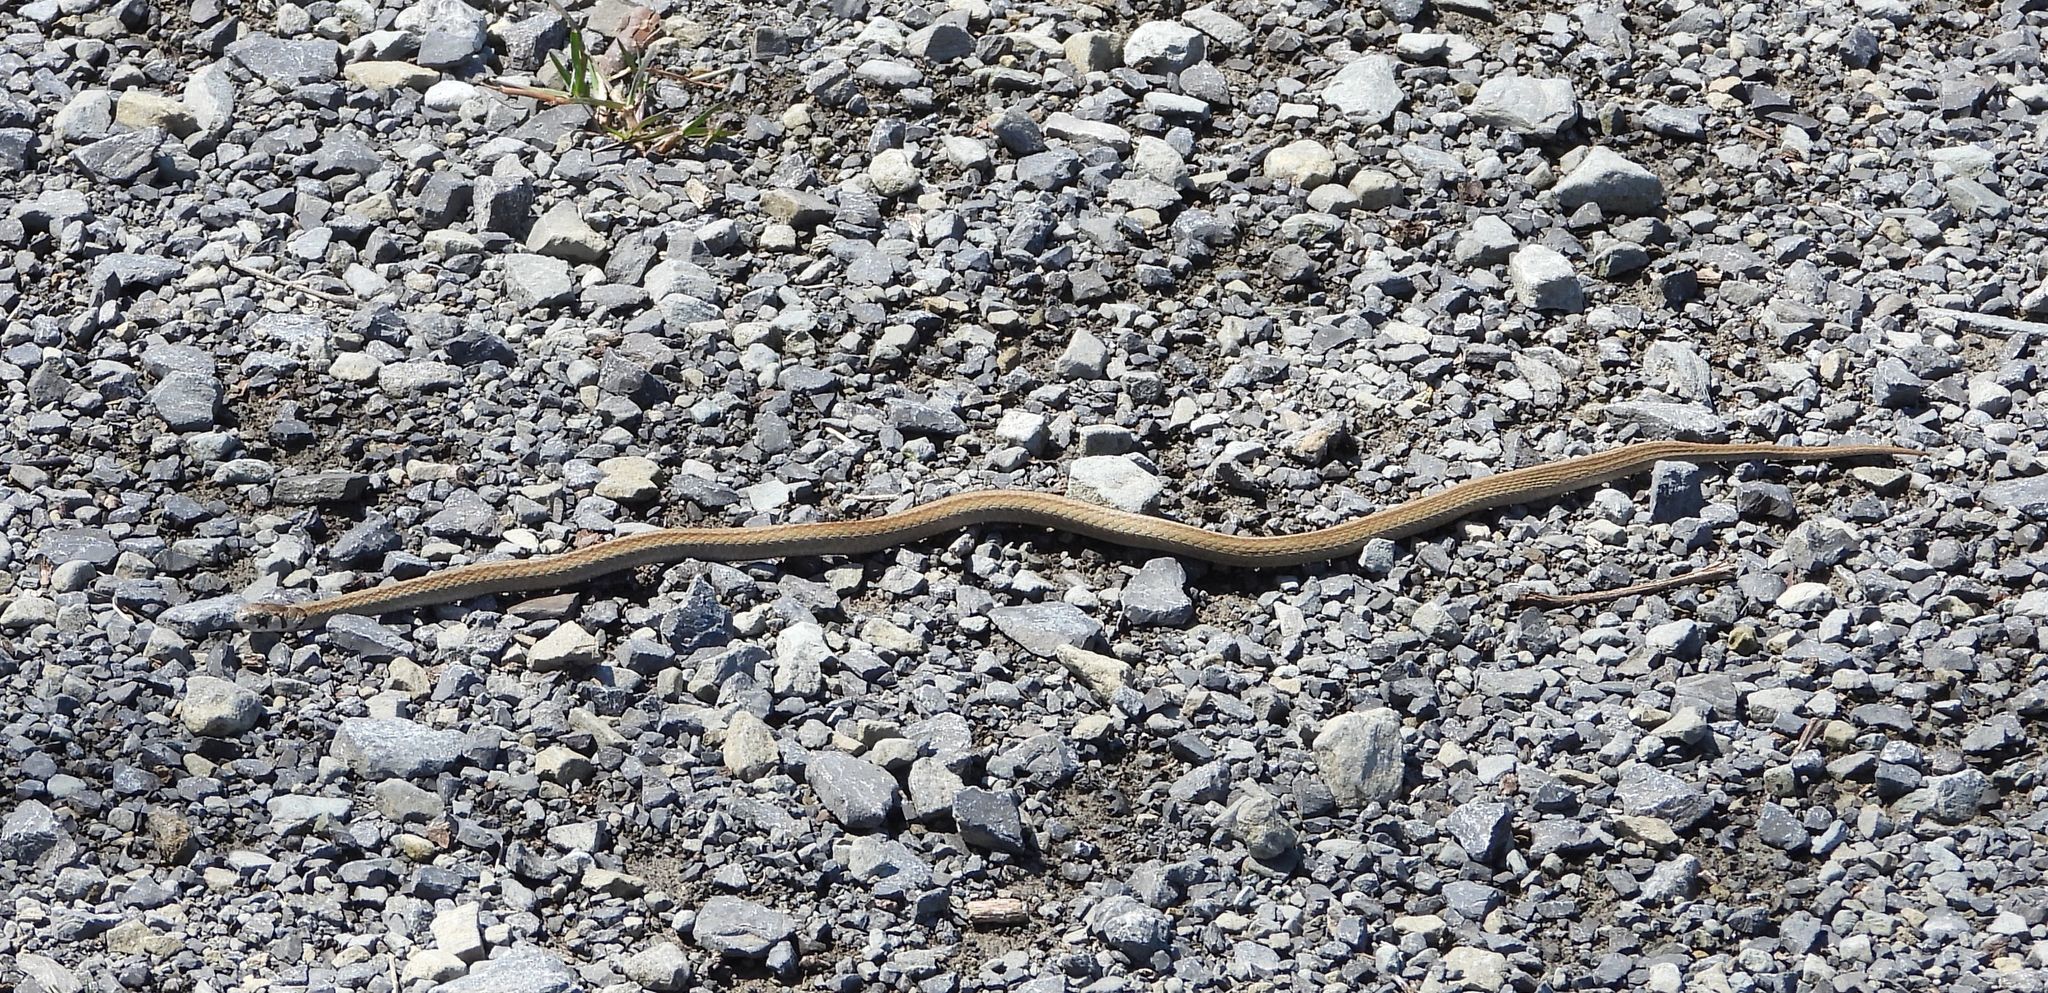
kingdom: Animalia
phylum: Chordata
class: Squamata
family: Colubridae
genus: Storeria
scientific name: Storeria dekayi
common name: (dekay’s) brown snake
